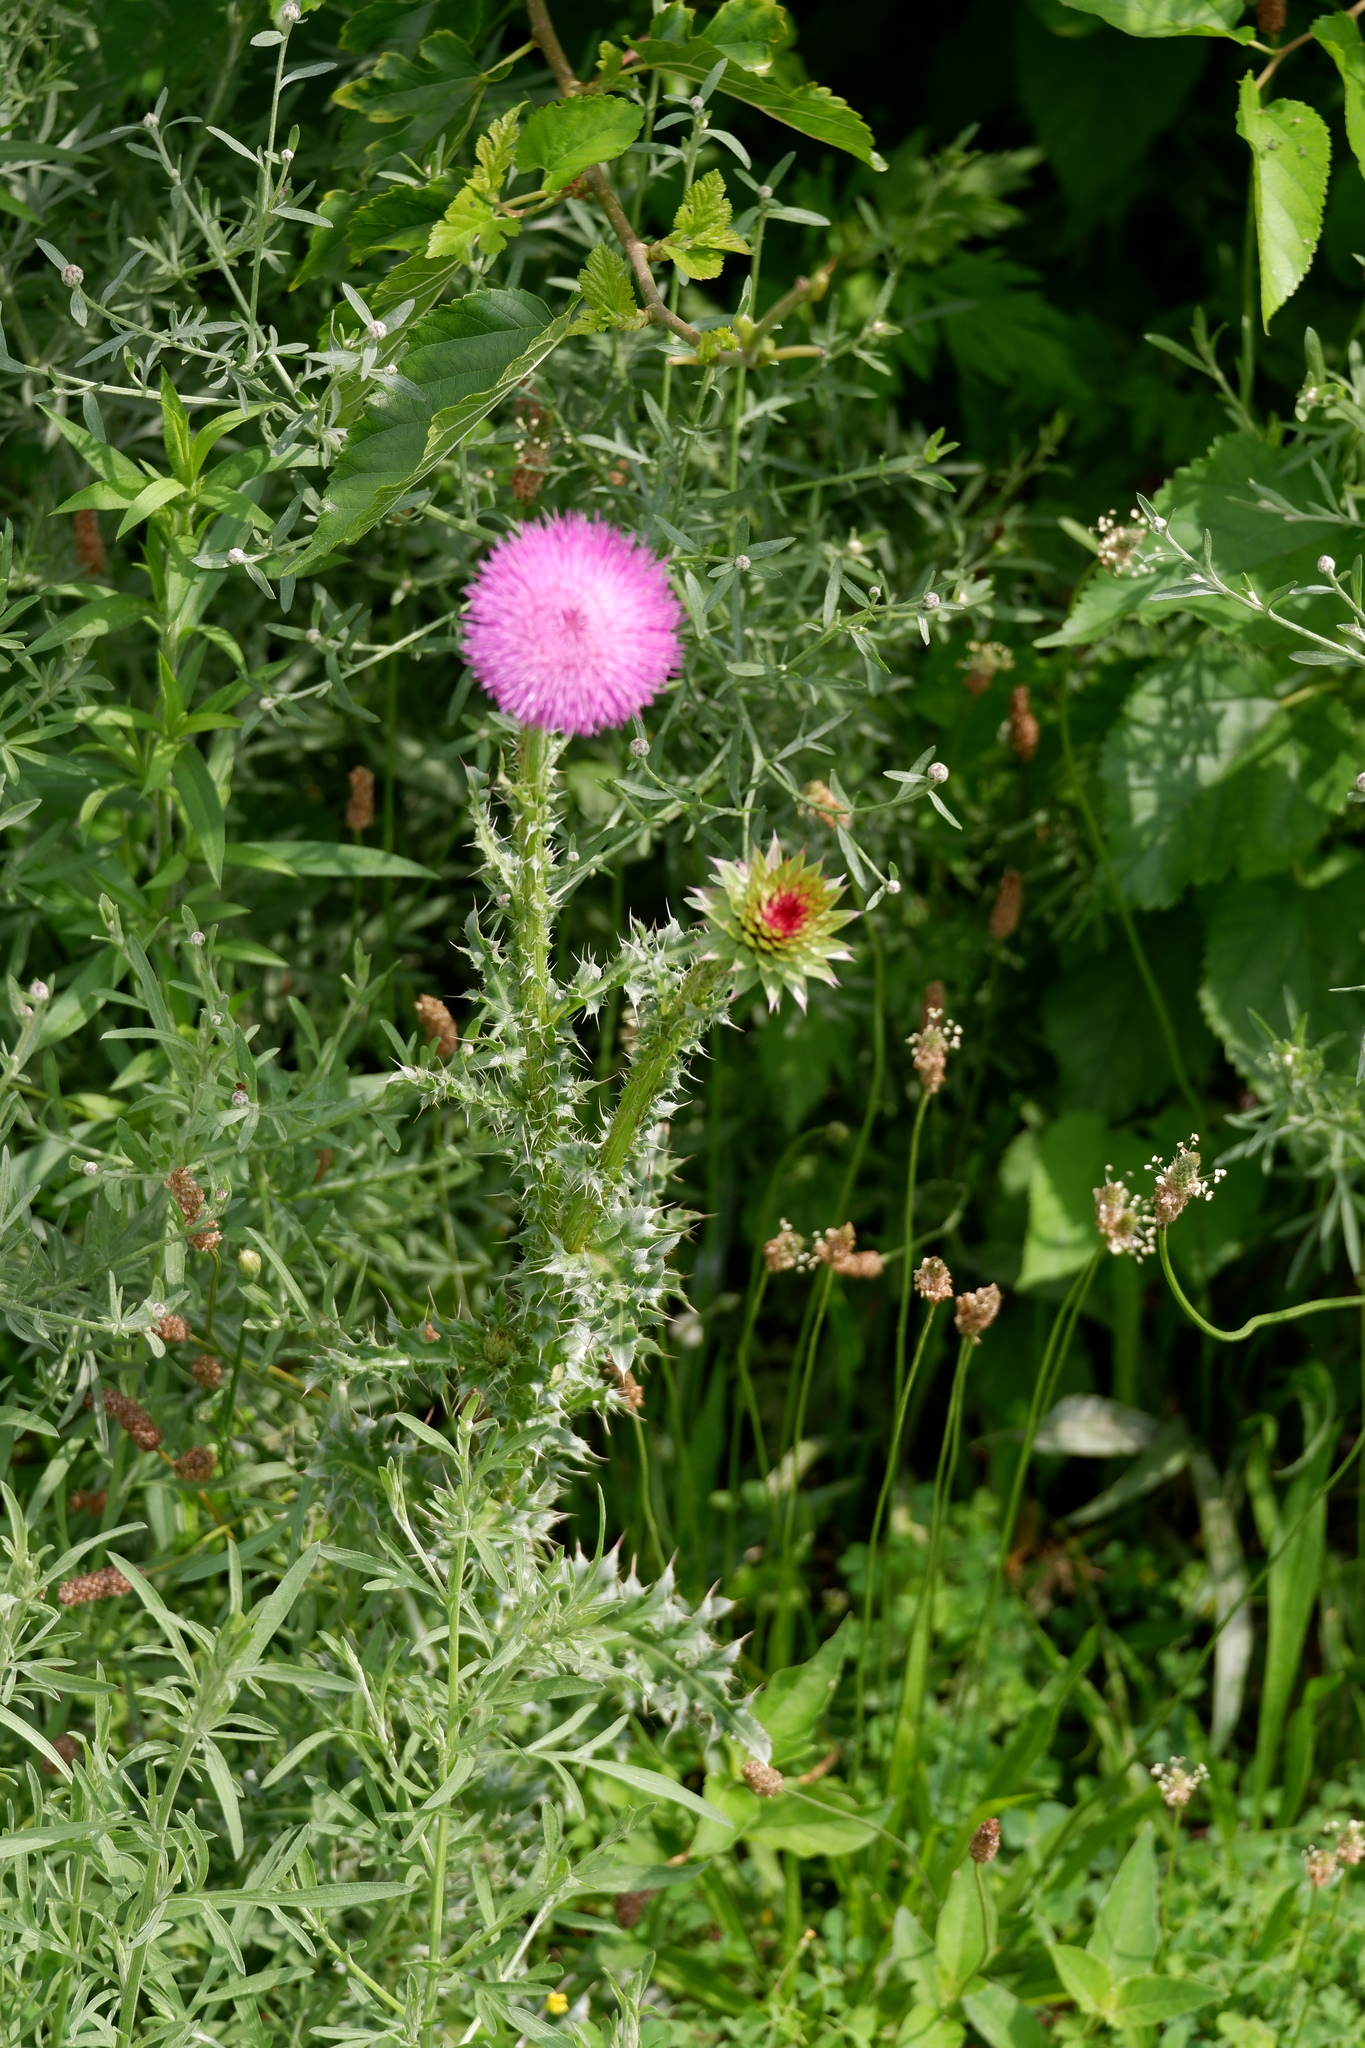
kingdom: Plantae
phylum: Tracheophyta
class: Magnoliopsida
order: Asterales
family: Asteraceae
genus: Carduus
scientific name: Carduus nutans
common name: Musk thistle
